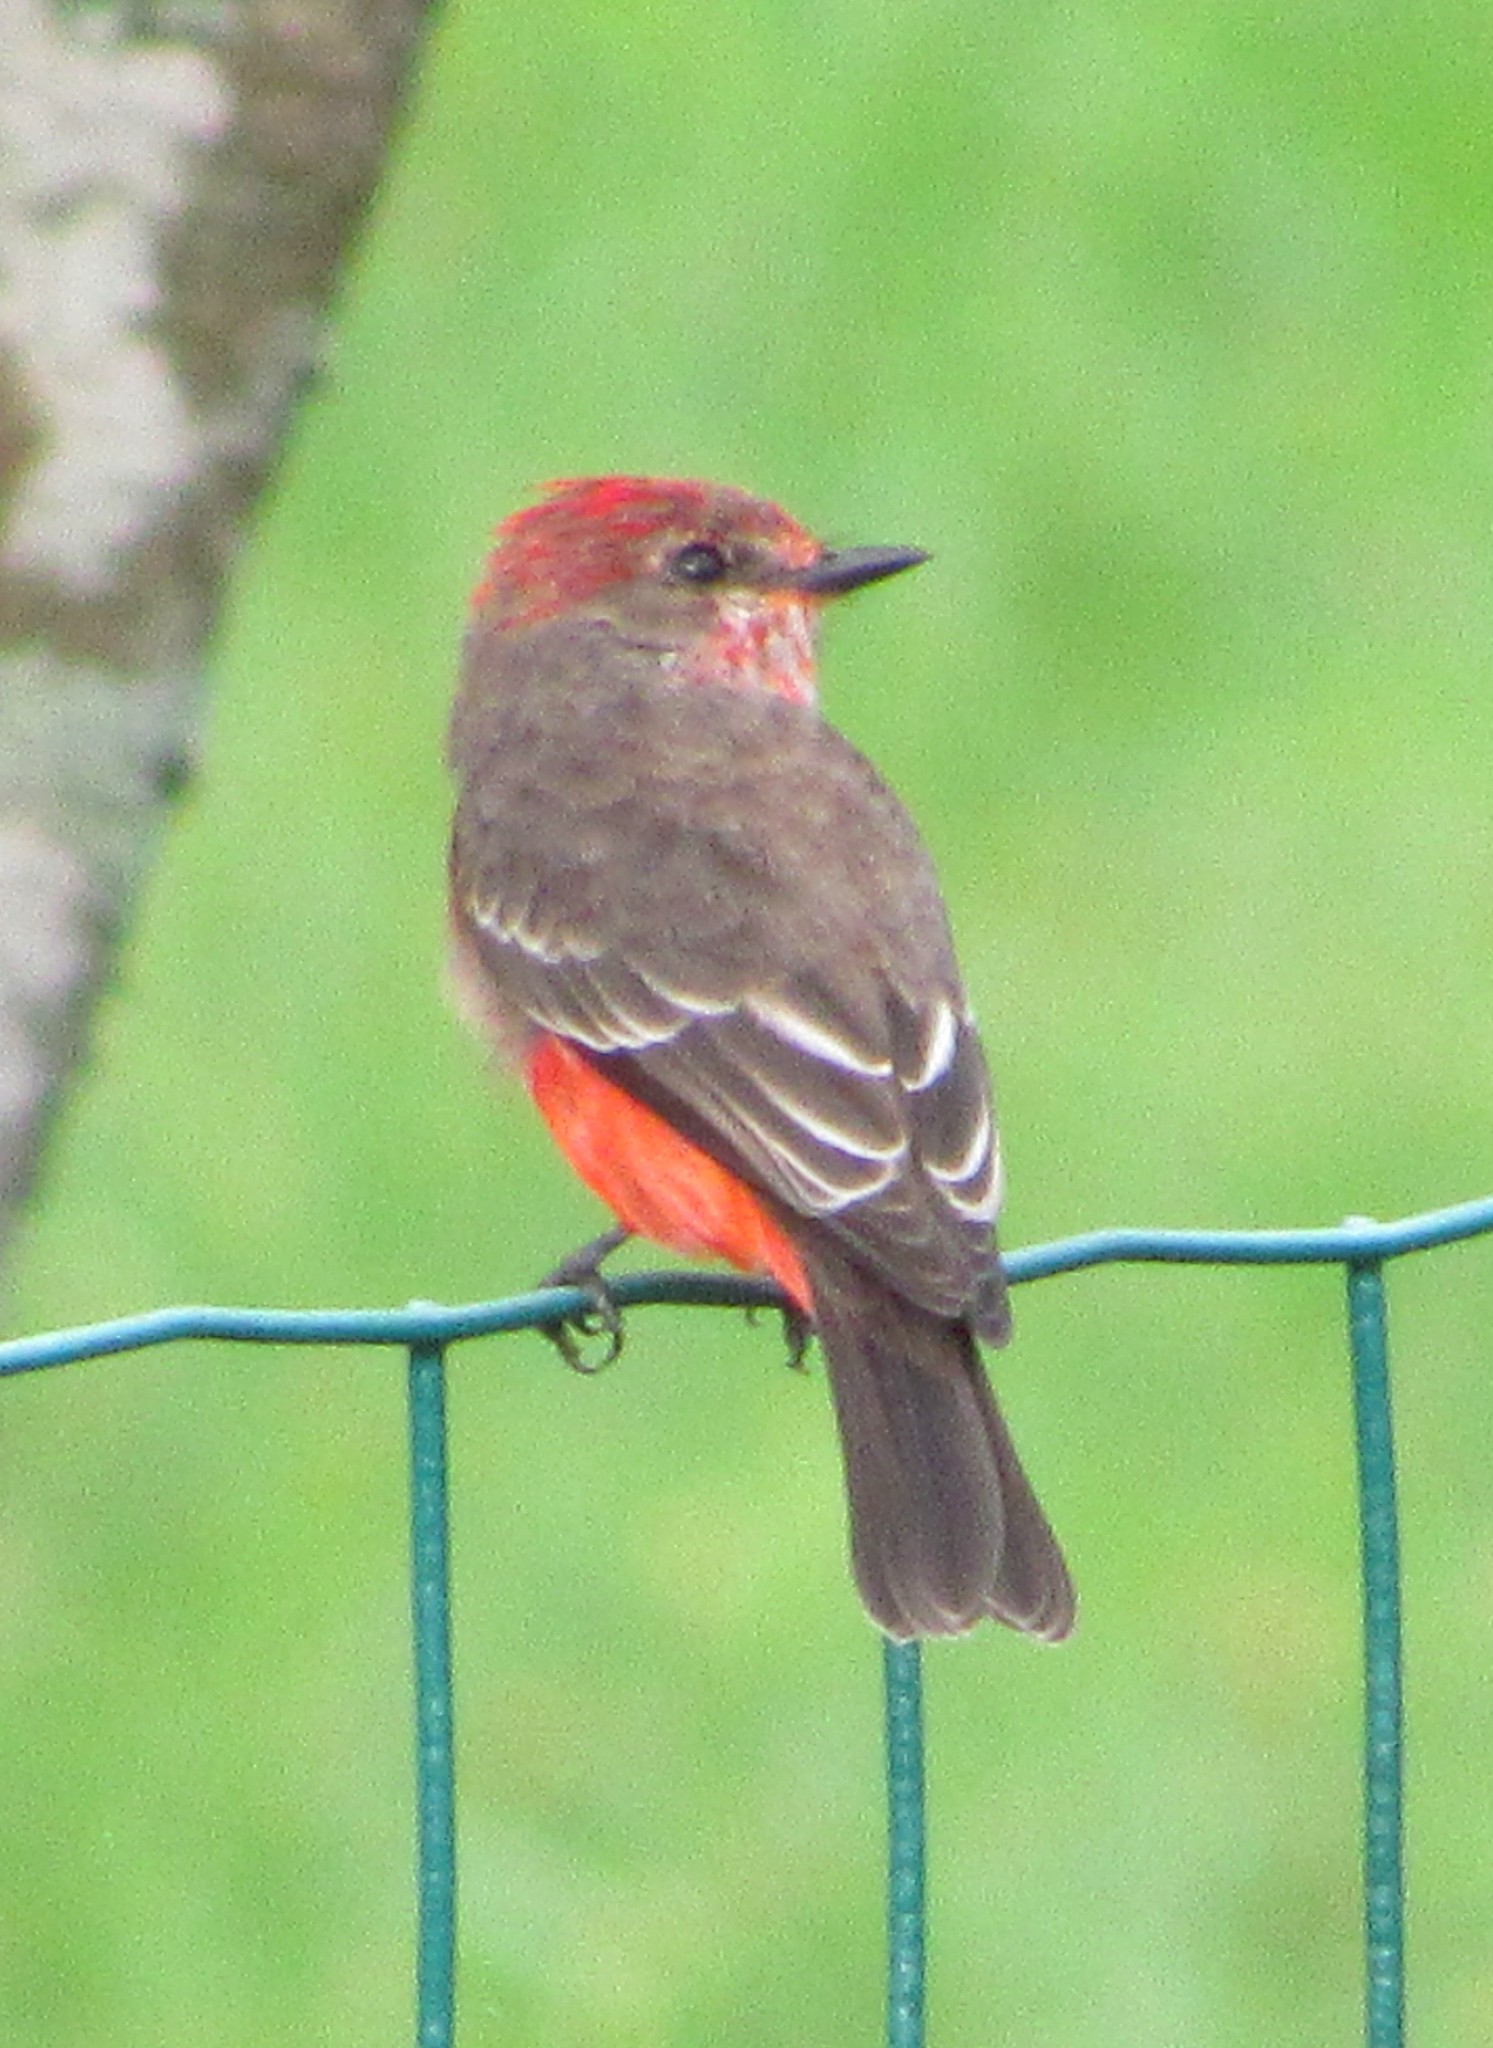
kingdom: Animalia
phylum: Chordata
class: Aves
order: Passeriformes
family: Tyrannidae
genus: Pyrocephalus
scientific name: Pyrocephalus rubinus
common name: Vermilion flycatcher
